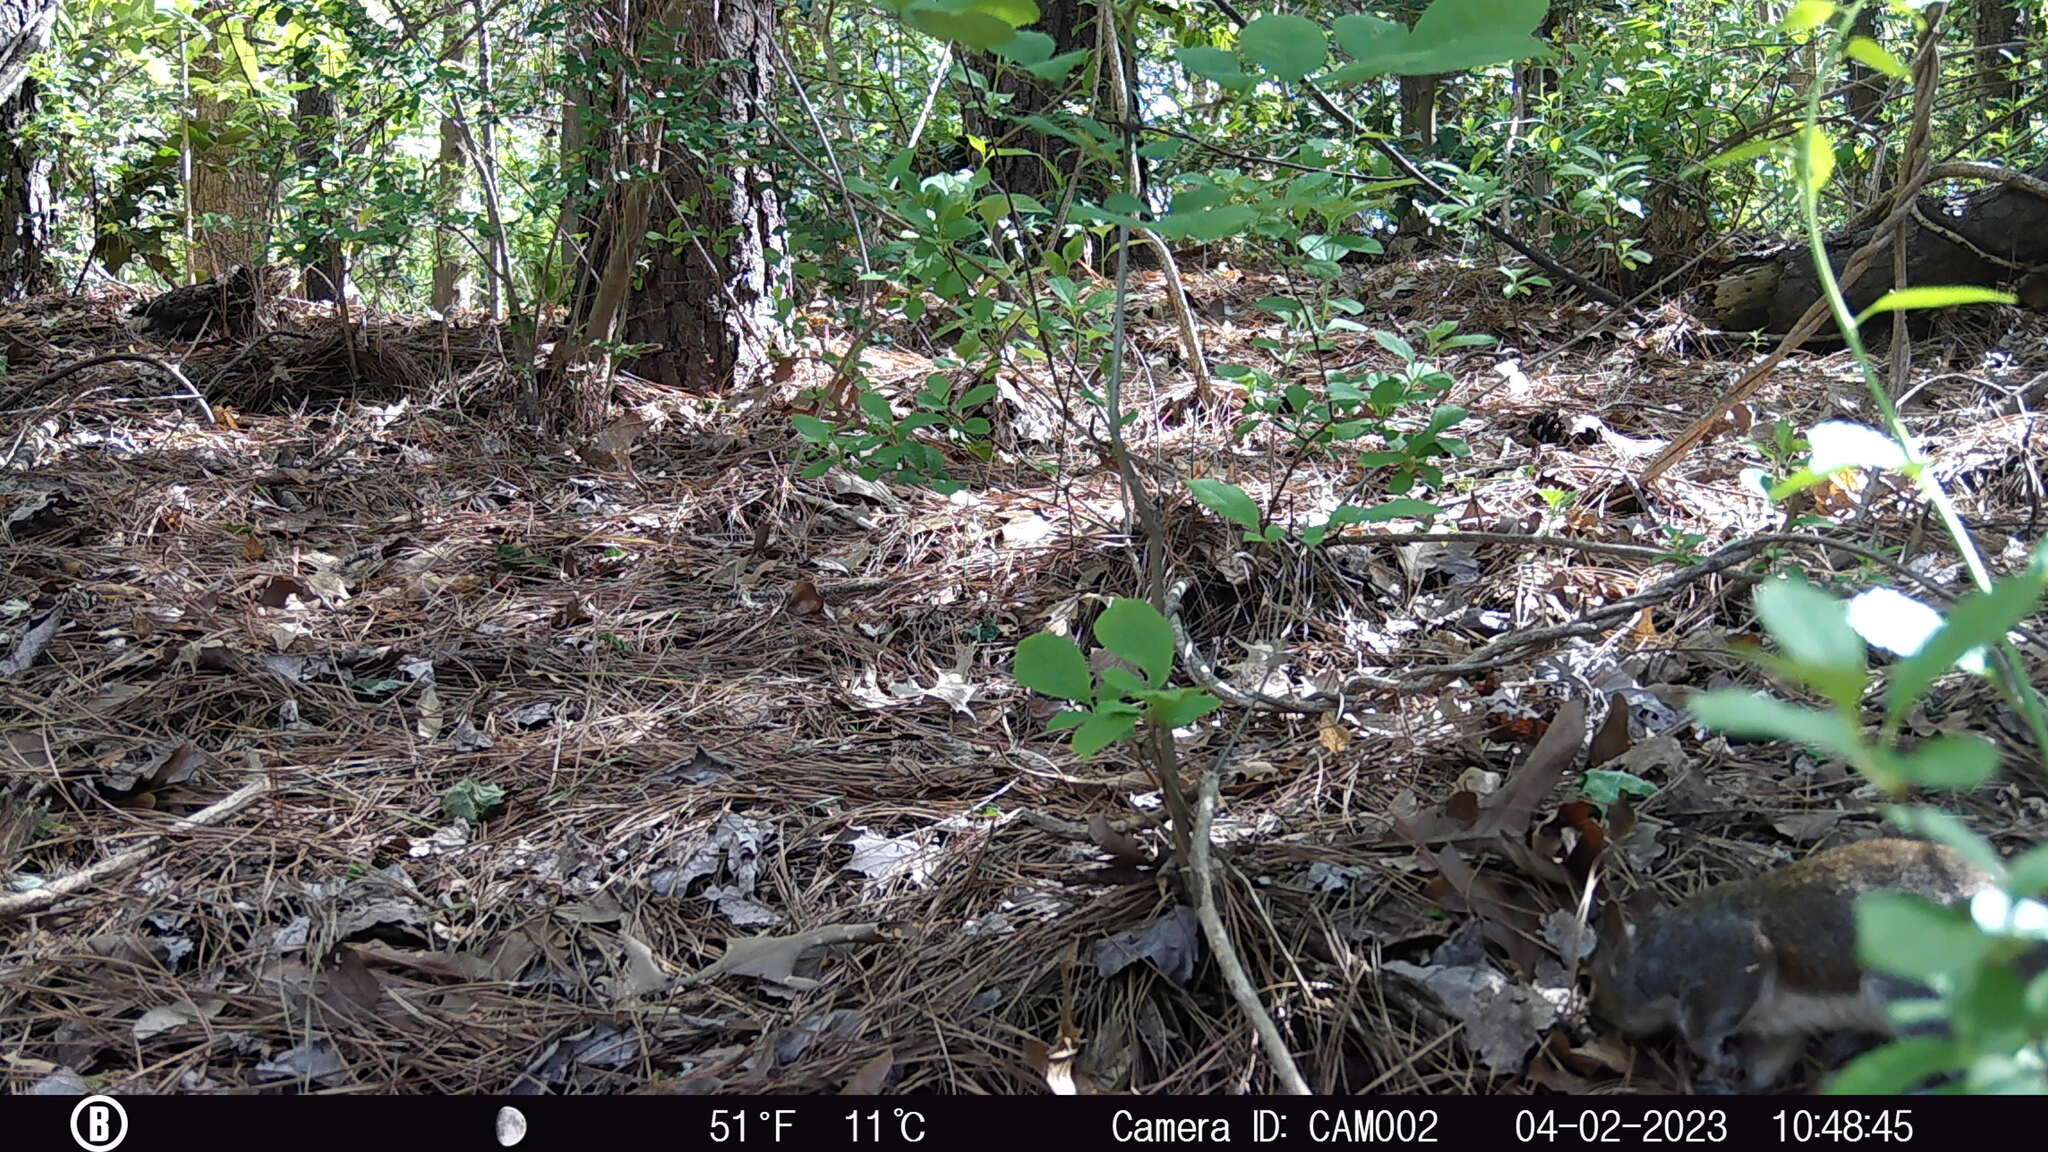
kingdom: Animalia
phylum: Chordata
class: Mammalia
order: Rodentia
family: Sciuridae
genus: Sciurus
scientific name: Sciurus carolinensis
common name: Eastern gray squirrel
